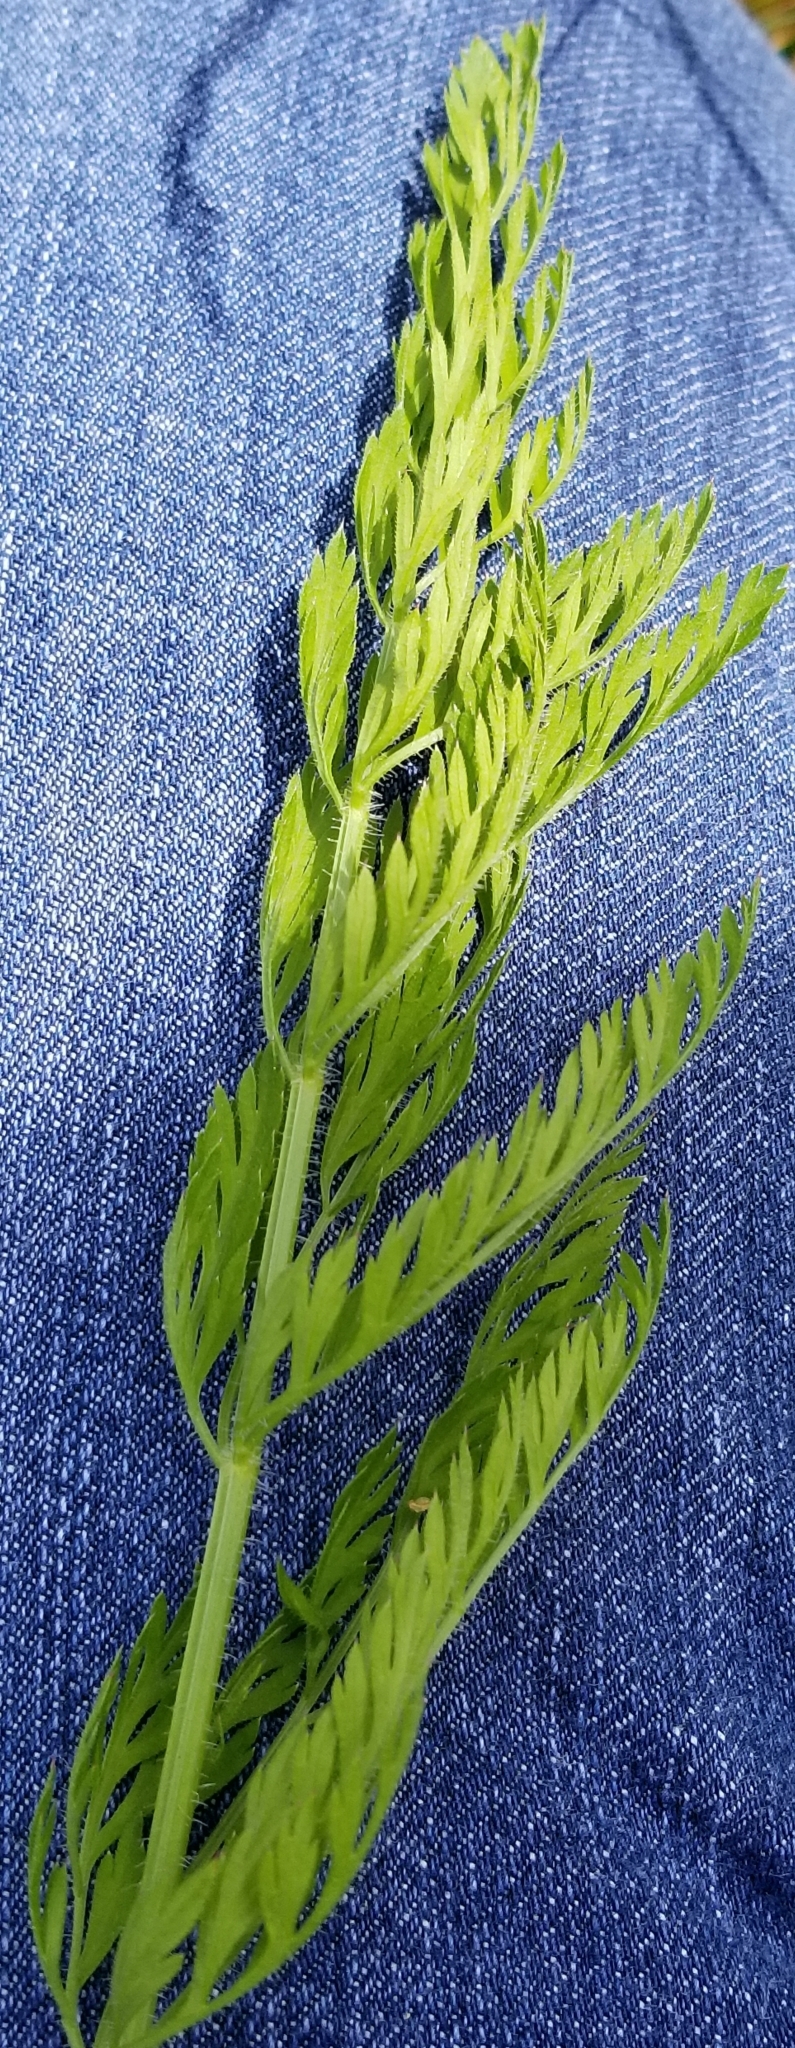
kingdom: Plantae
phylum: Tracheophyta
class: Magnoliopsida
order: Apiales
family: Apiaceae
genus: Daucus
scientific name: Daucus carota
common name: Wild carrot
